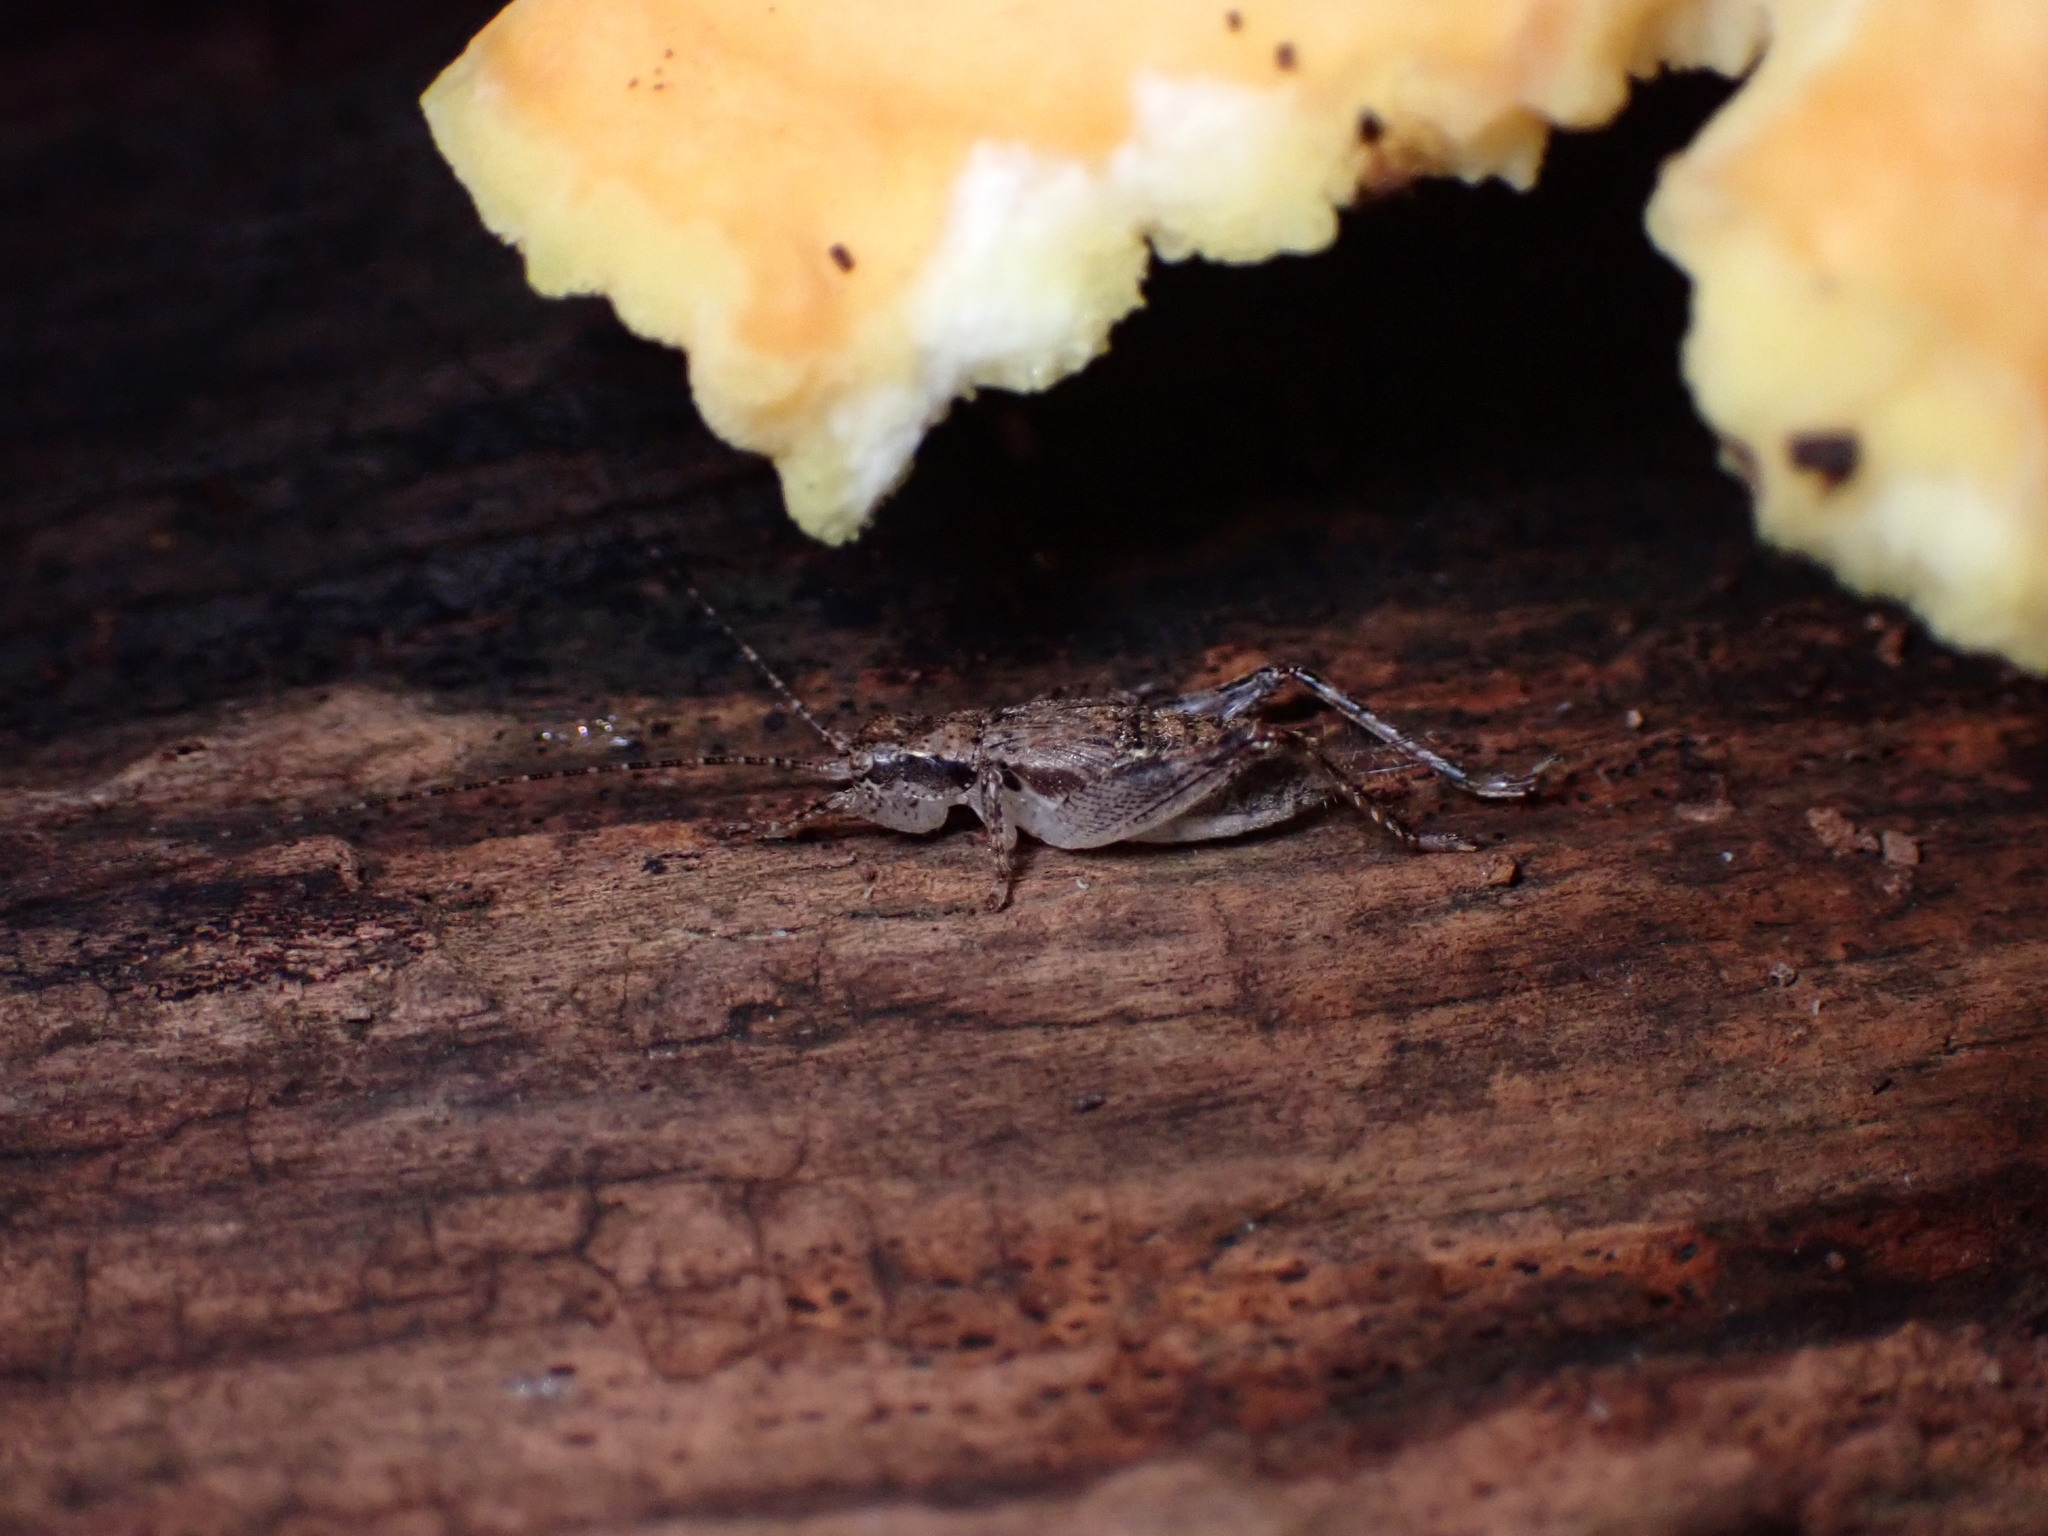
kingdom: Animalia
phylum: Arthropoda
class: Insecta
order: Orthoptera
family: Gryllidae
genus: Hapithus
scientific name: Hapithus saltator
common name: Jumping bush cricket
